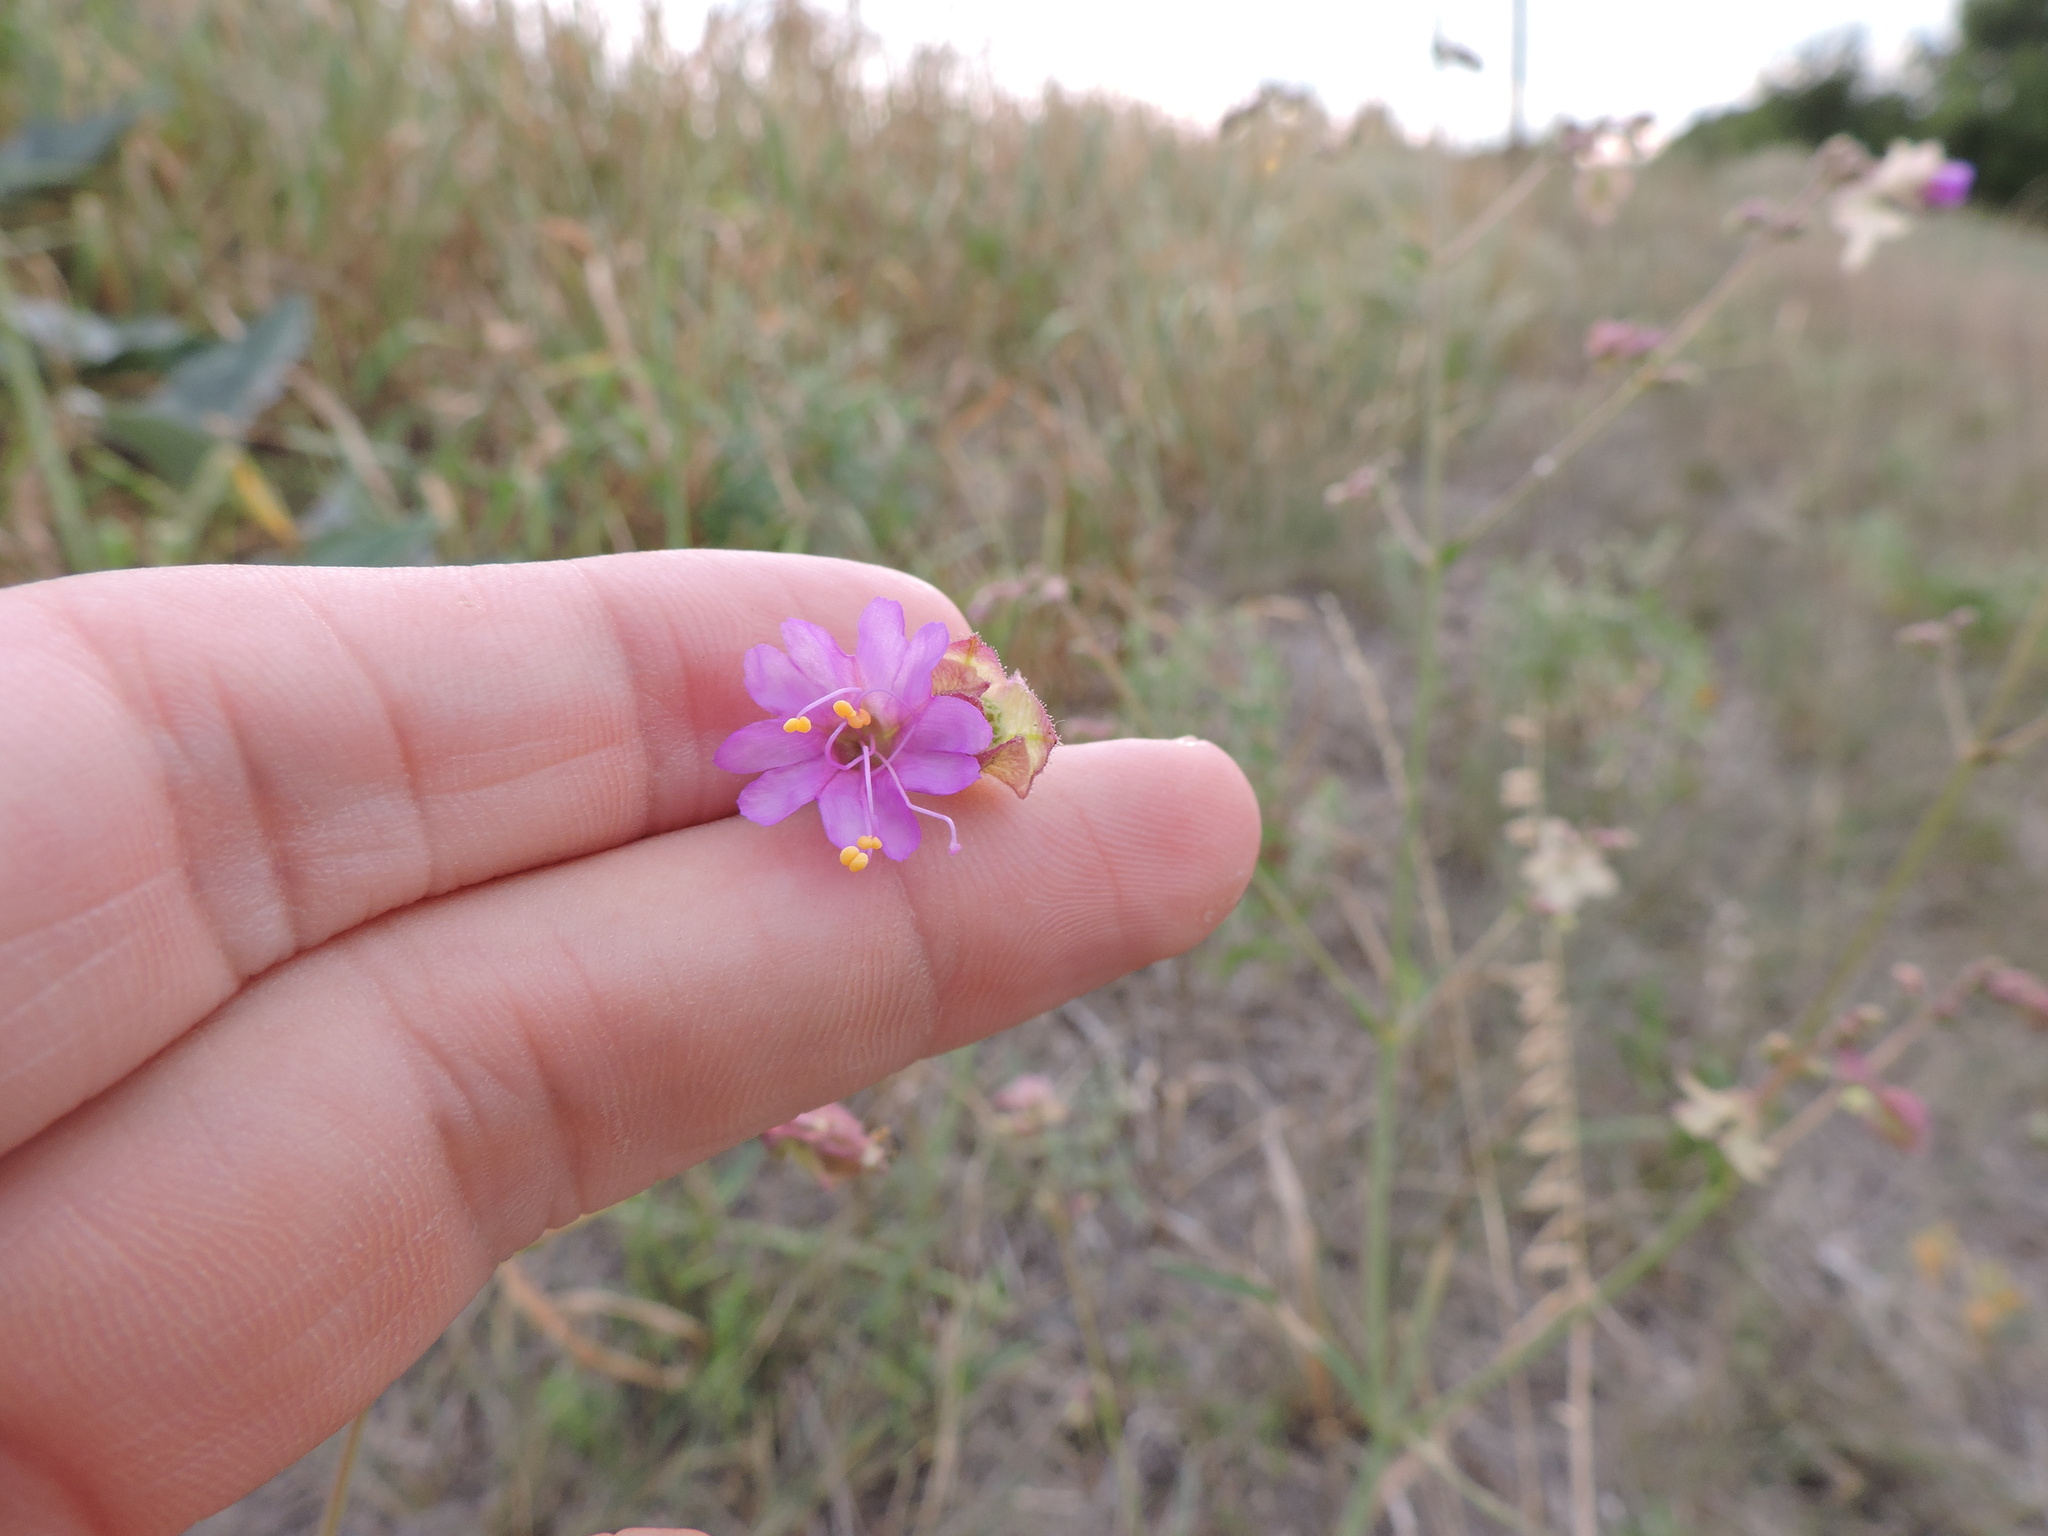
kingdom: Plantae
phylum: Tracheophyta
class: Magnoliopsida
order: Caryophyllales
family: Nyctaginaceae
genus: Mirabilis
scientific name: Mirabilis albida
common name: Hairy four-o'clock
